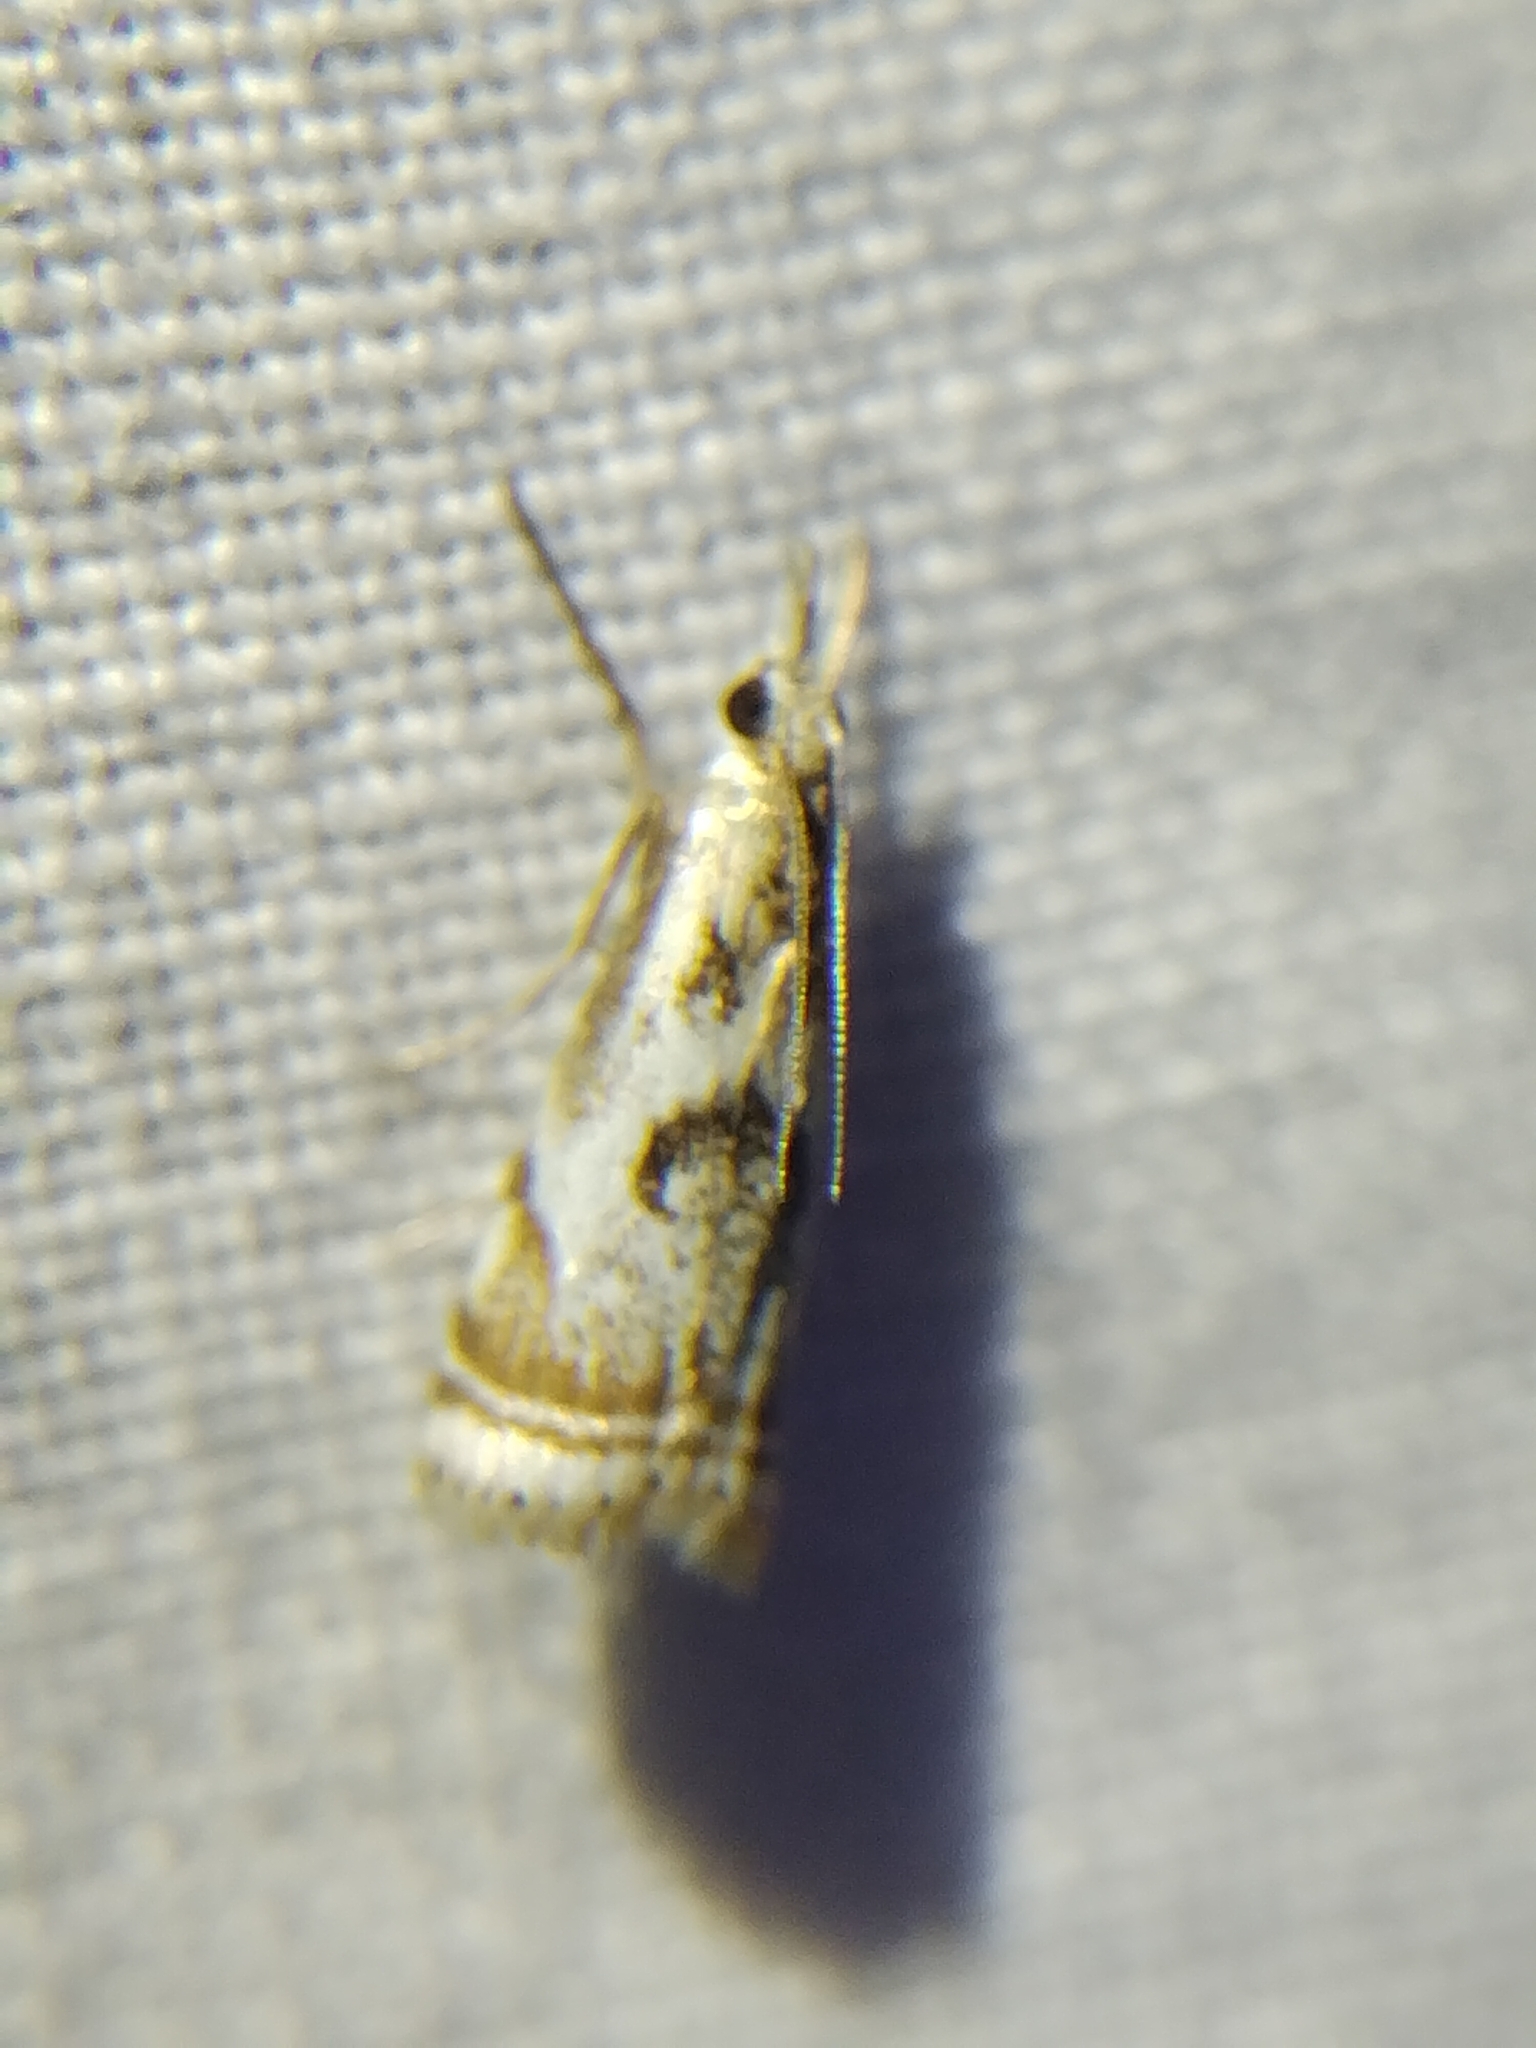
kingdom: Animalia
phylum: Arthropoda
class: Insecta
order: Lepidoptera
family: Crambidae
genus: Microcrambus
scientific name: Microcrambus elegans
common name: Elegant grass-veneer
